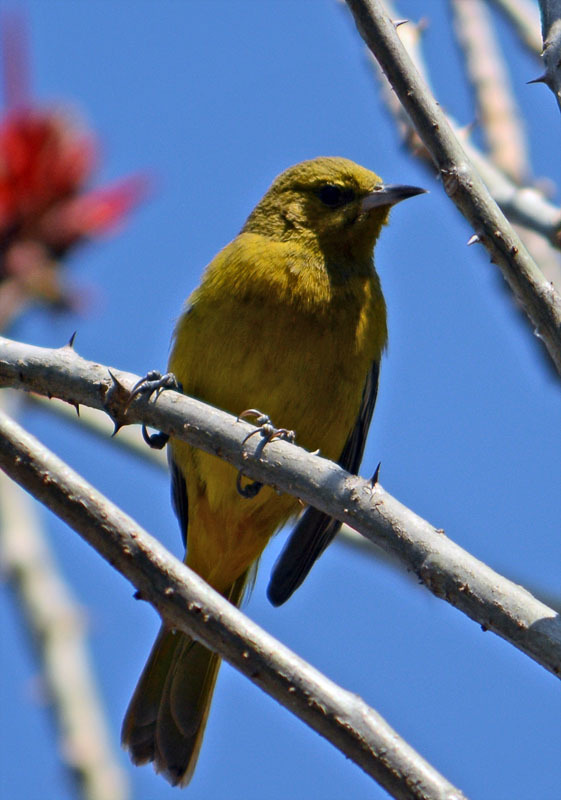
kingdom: Animalia
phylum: Chordata
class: Aves
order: Passeriformes
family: Icteridae
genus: Icterus
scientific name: Icterus spurius
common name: Orchard oriole
